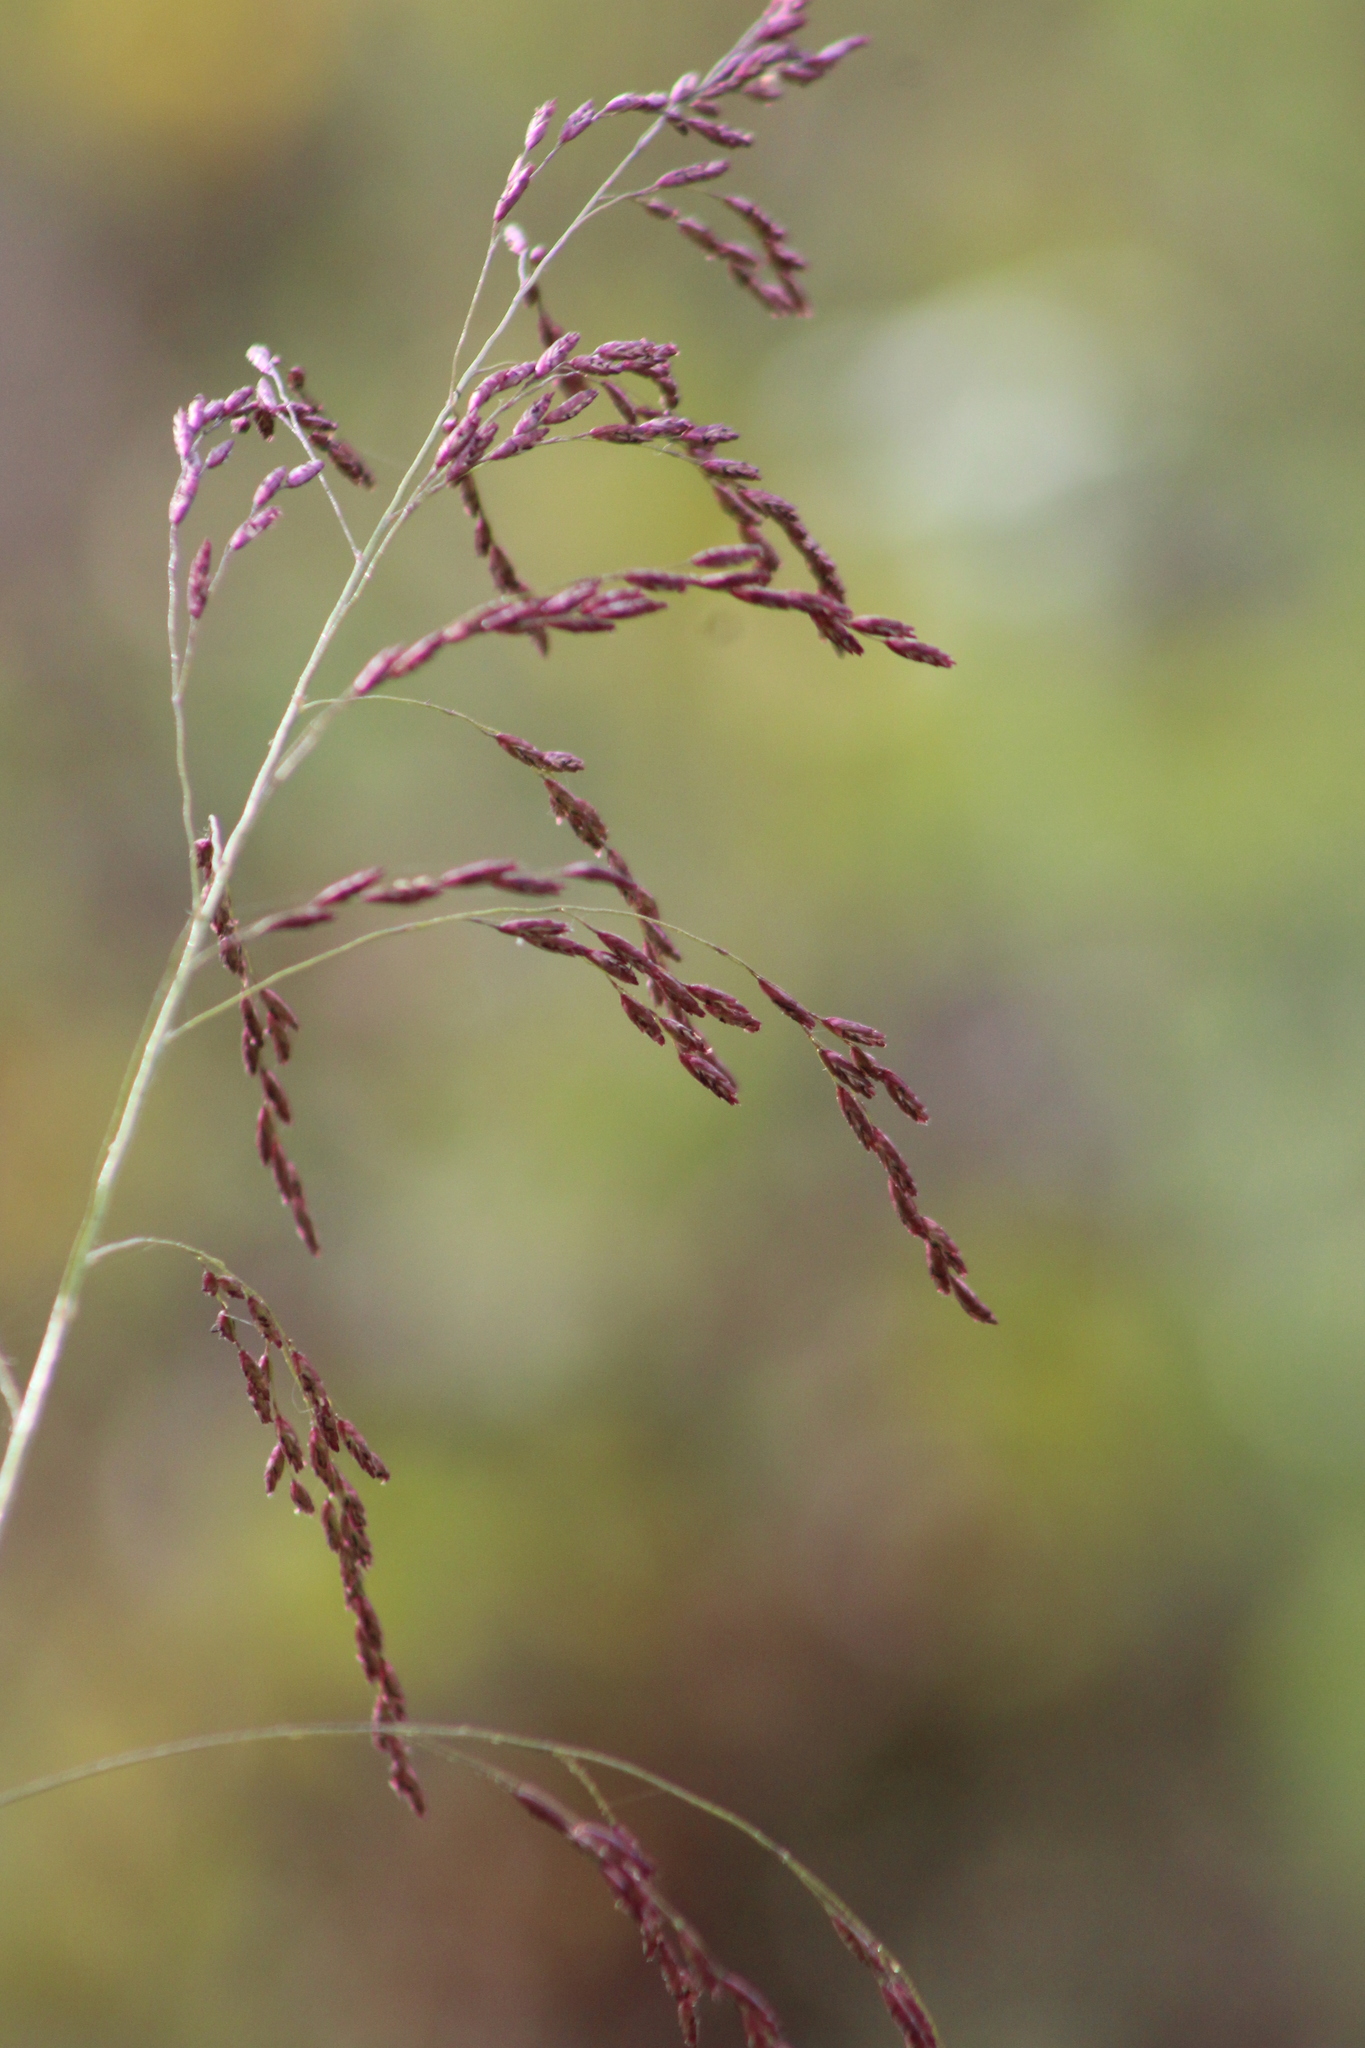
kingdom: Plantae
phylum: Tracheophyta
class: Liliopsida
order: Poales
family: Poaceae
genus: Tridens
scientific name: Tridens flavus
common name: Purpletop
